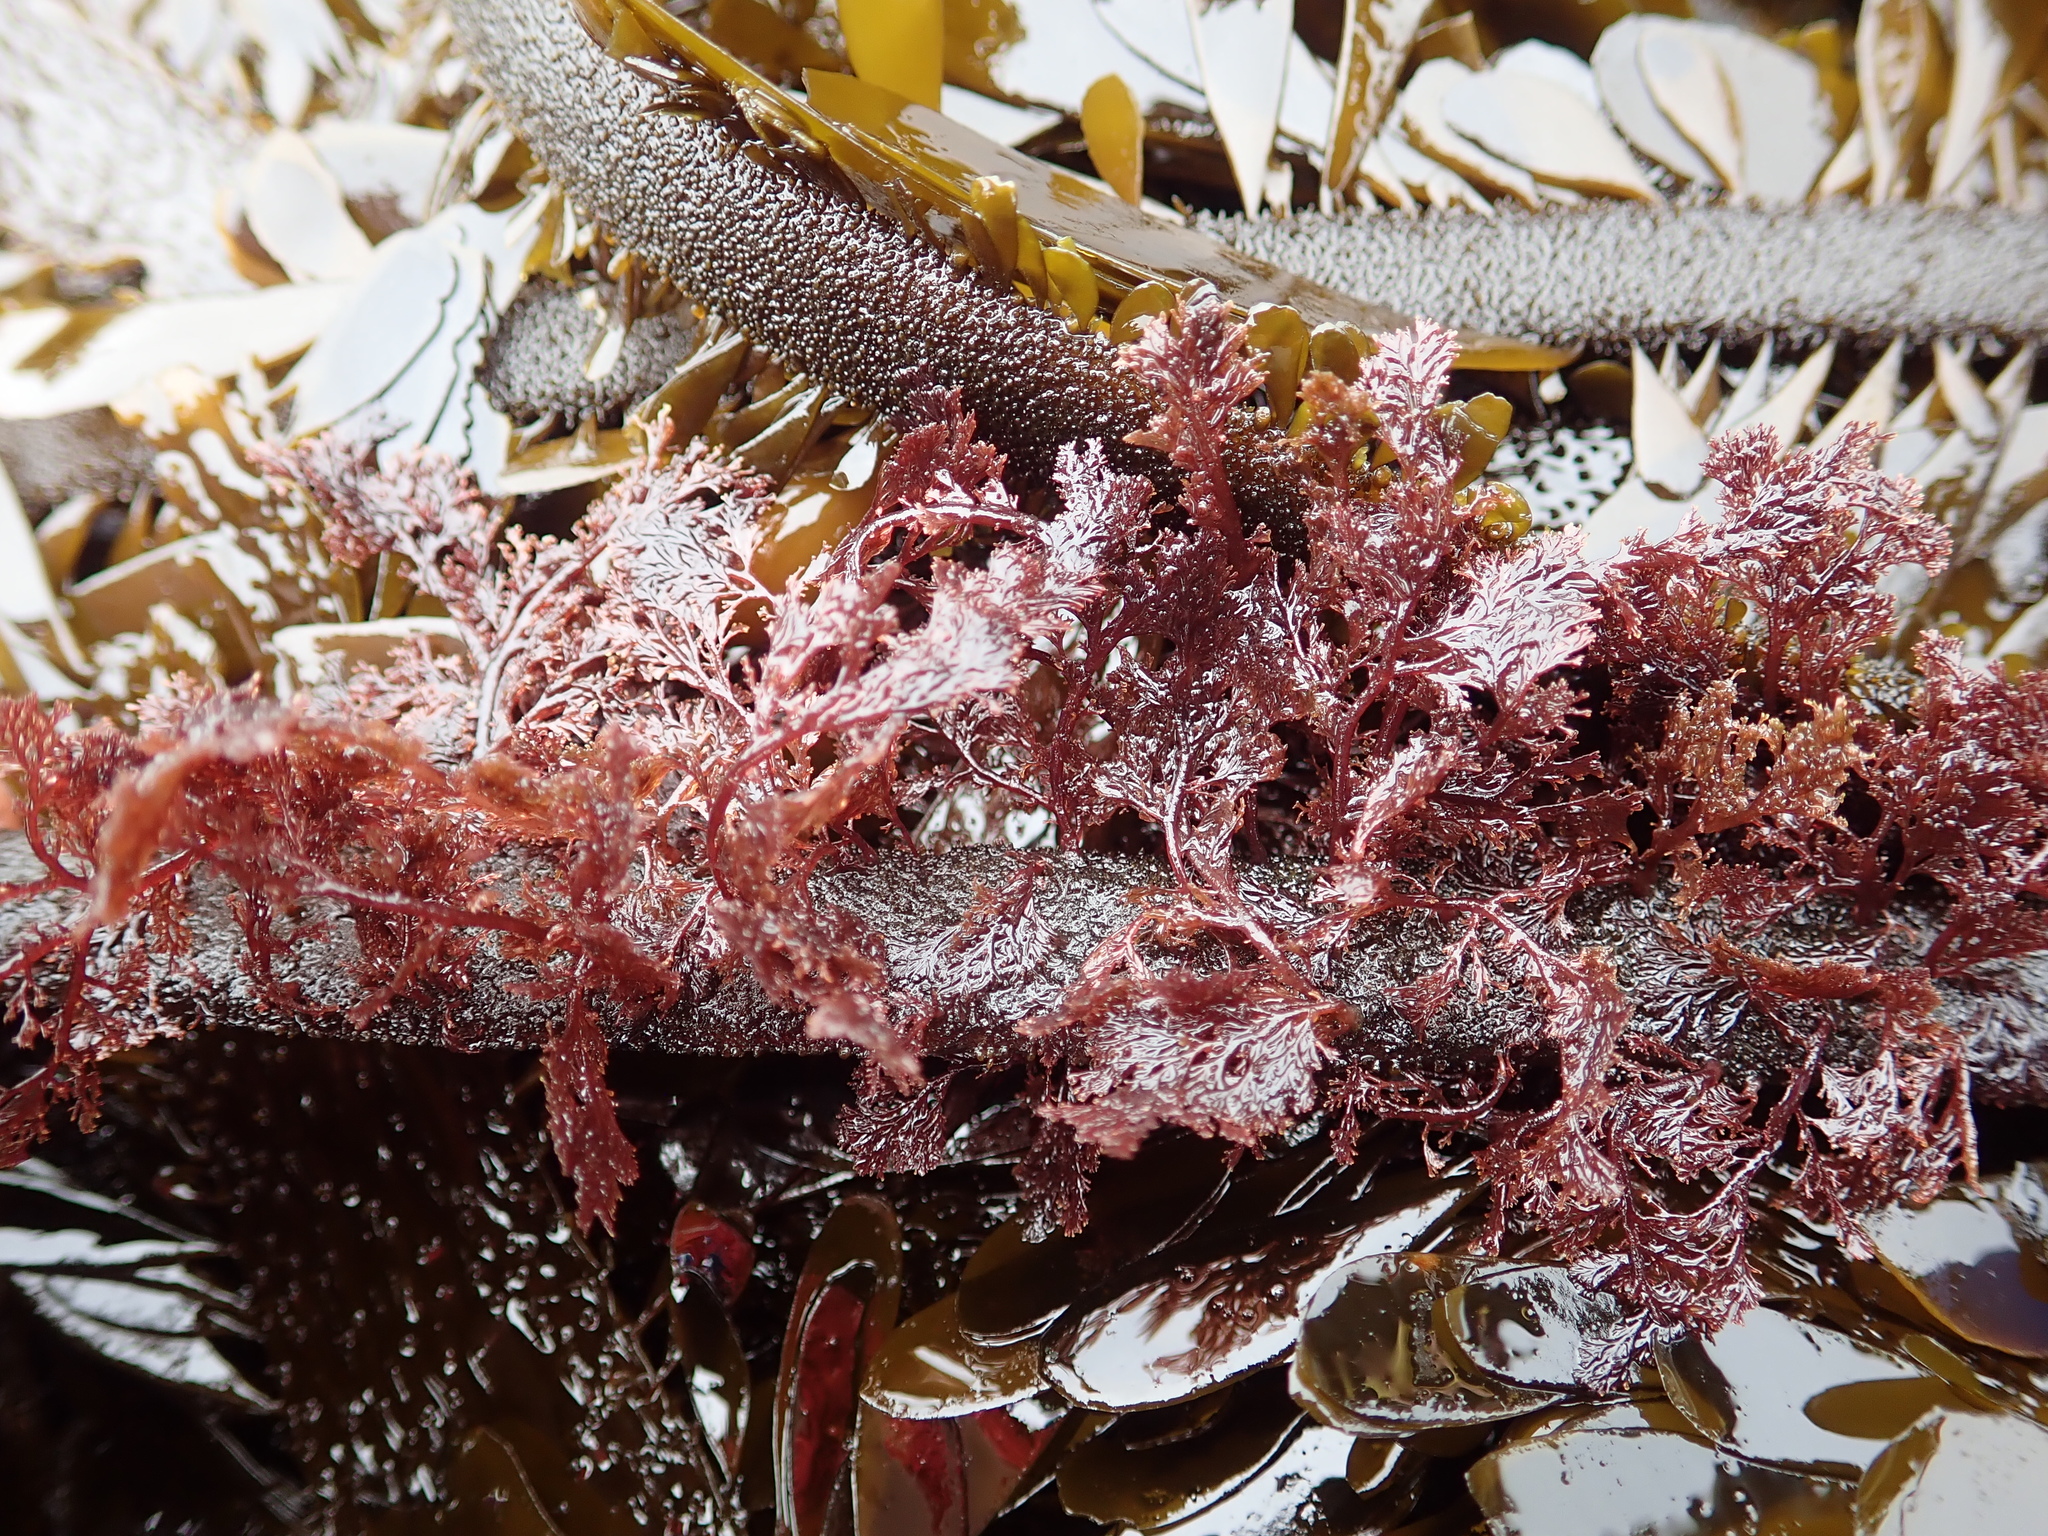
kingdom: Plantae
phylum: Rhodophyta
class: Florideophyceae
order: Ceramiales
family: Ceramiaceae
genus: Microcladia
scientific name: Microcladia coulteri
